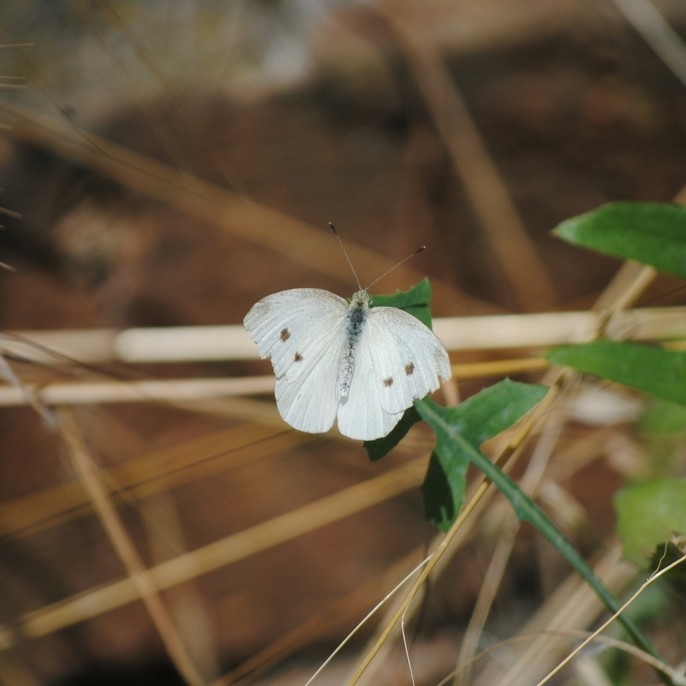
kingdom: Animalia
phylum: Arthropoda
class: Insecta
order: Lepidoptera
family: Pieridae
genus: Pieris
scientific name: Pieris rapae
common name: Small white
